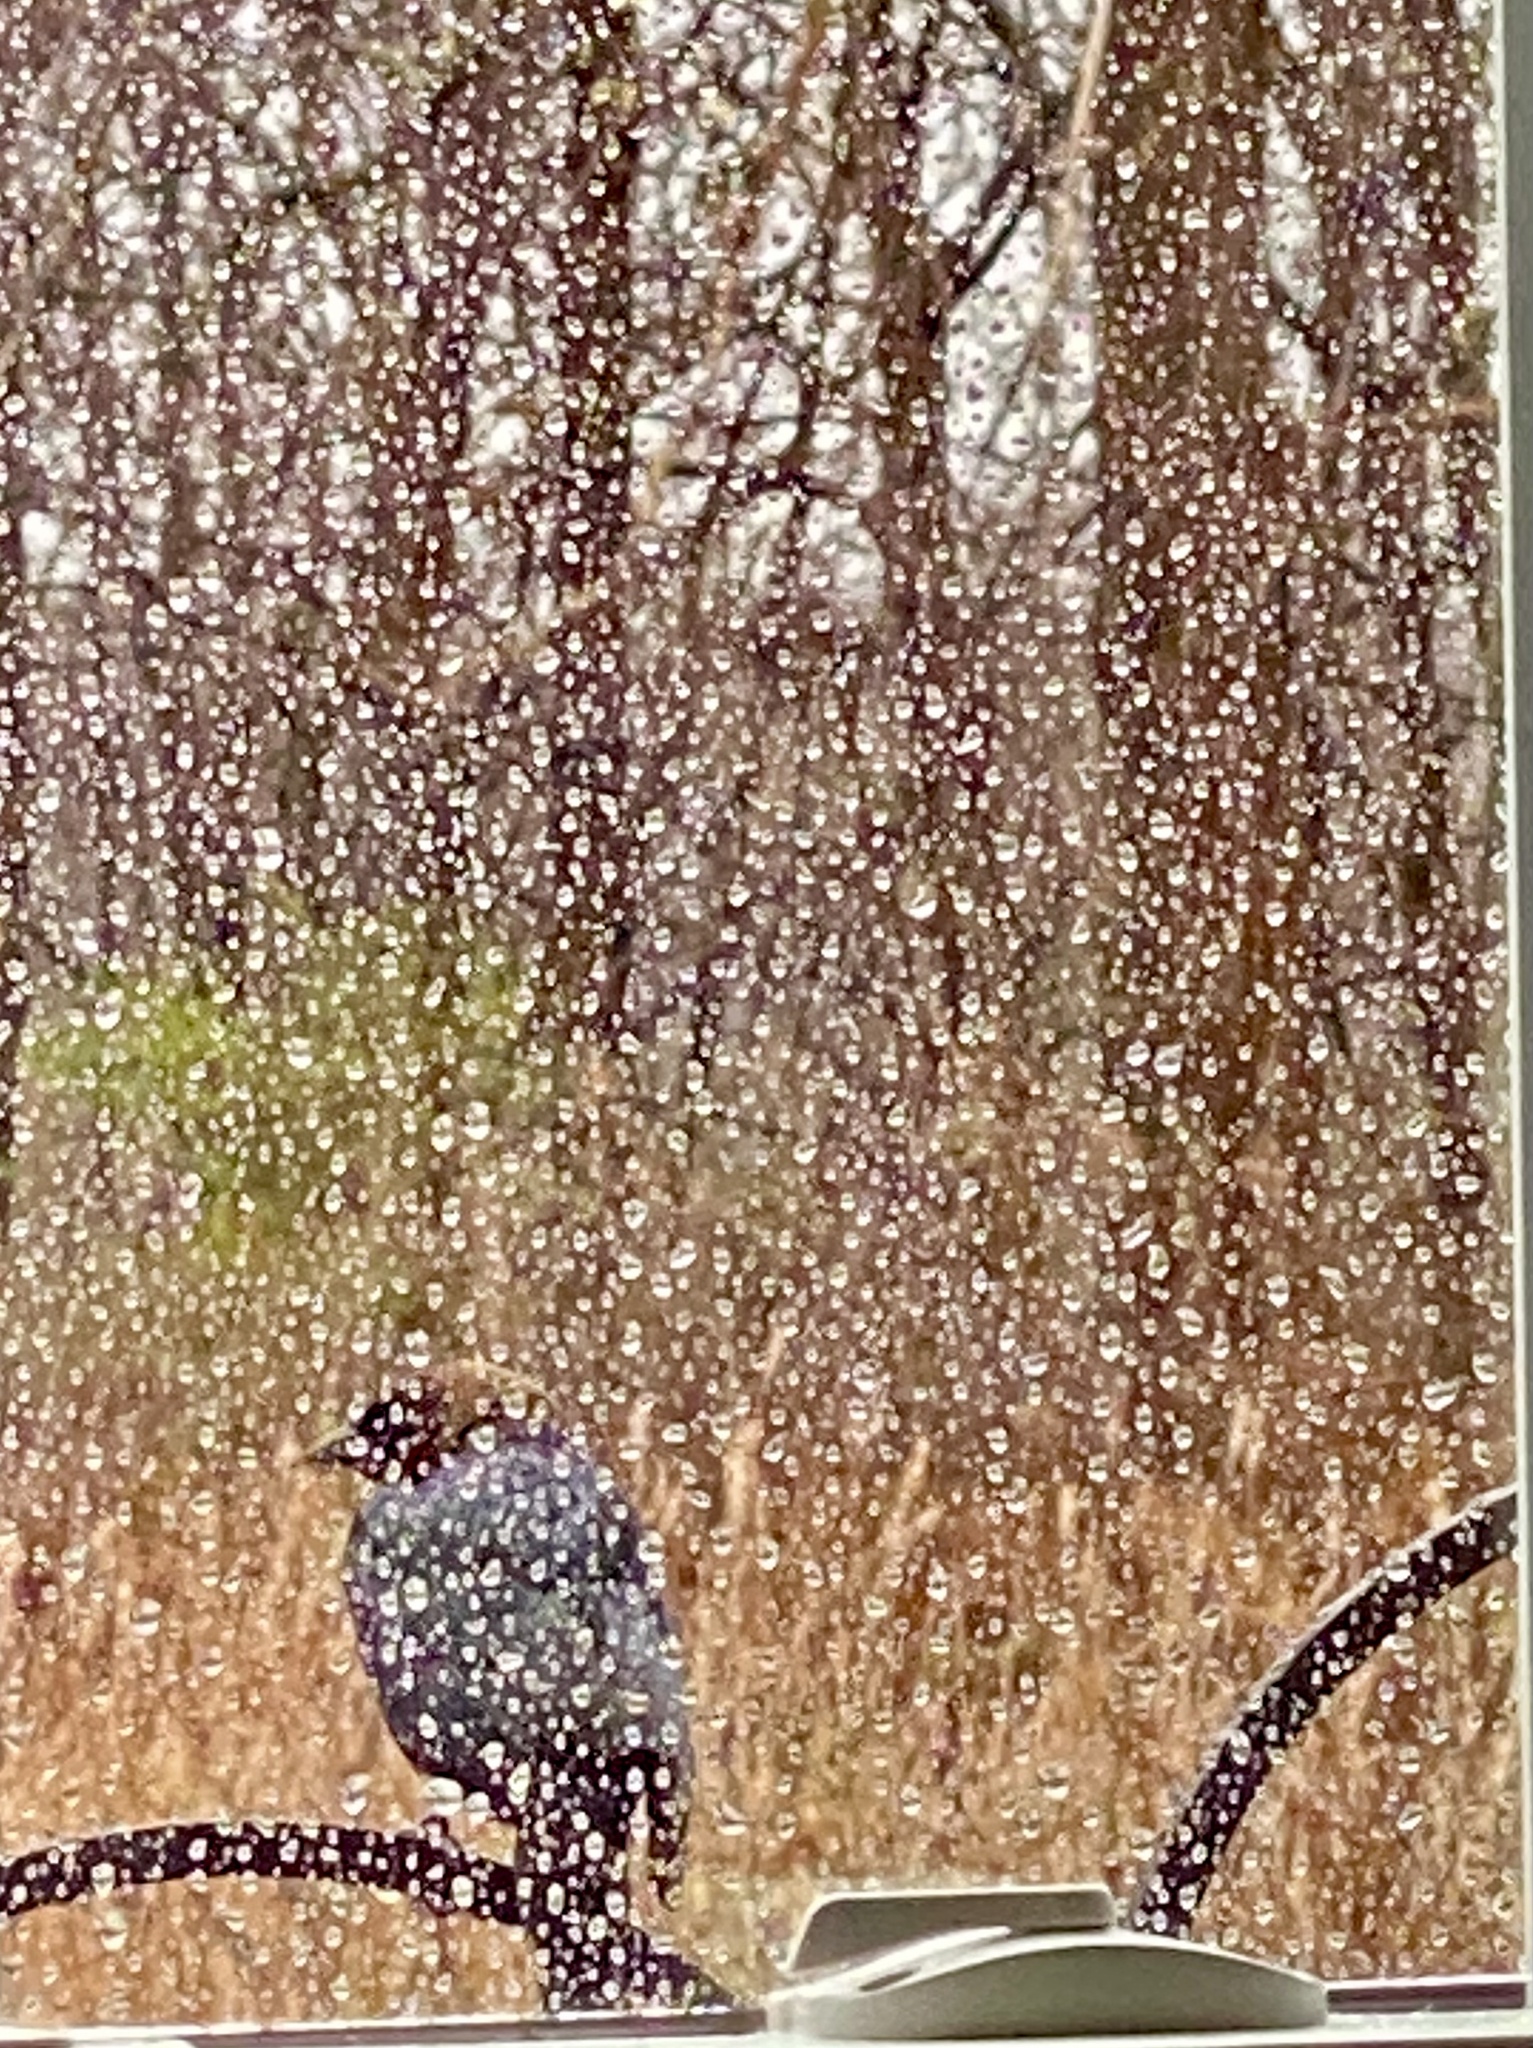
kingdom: Animalia
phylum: Chordata
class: Aves
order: Passeriformes
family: Icteridae
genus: Molothrus
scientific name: Molothrus ater
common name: Brown-headed cowbird
